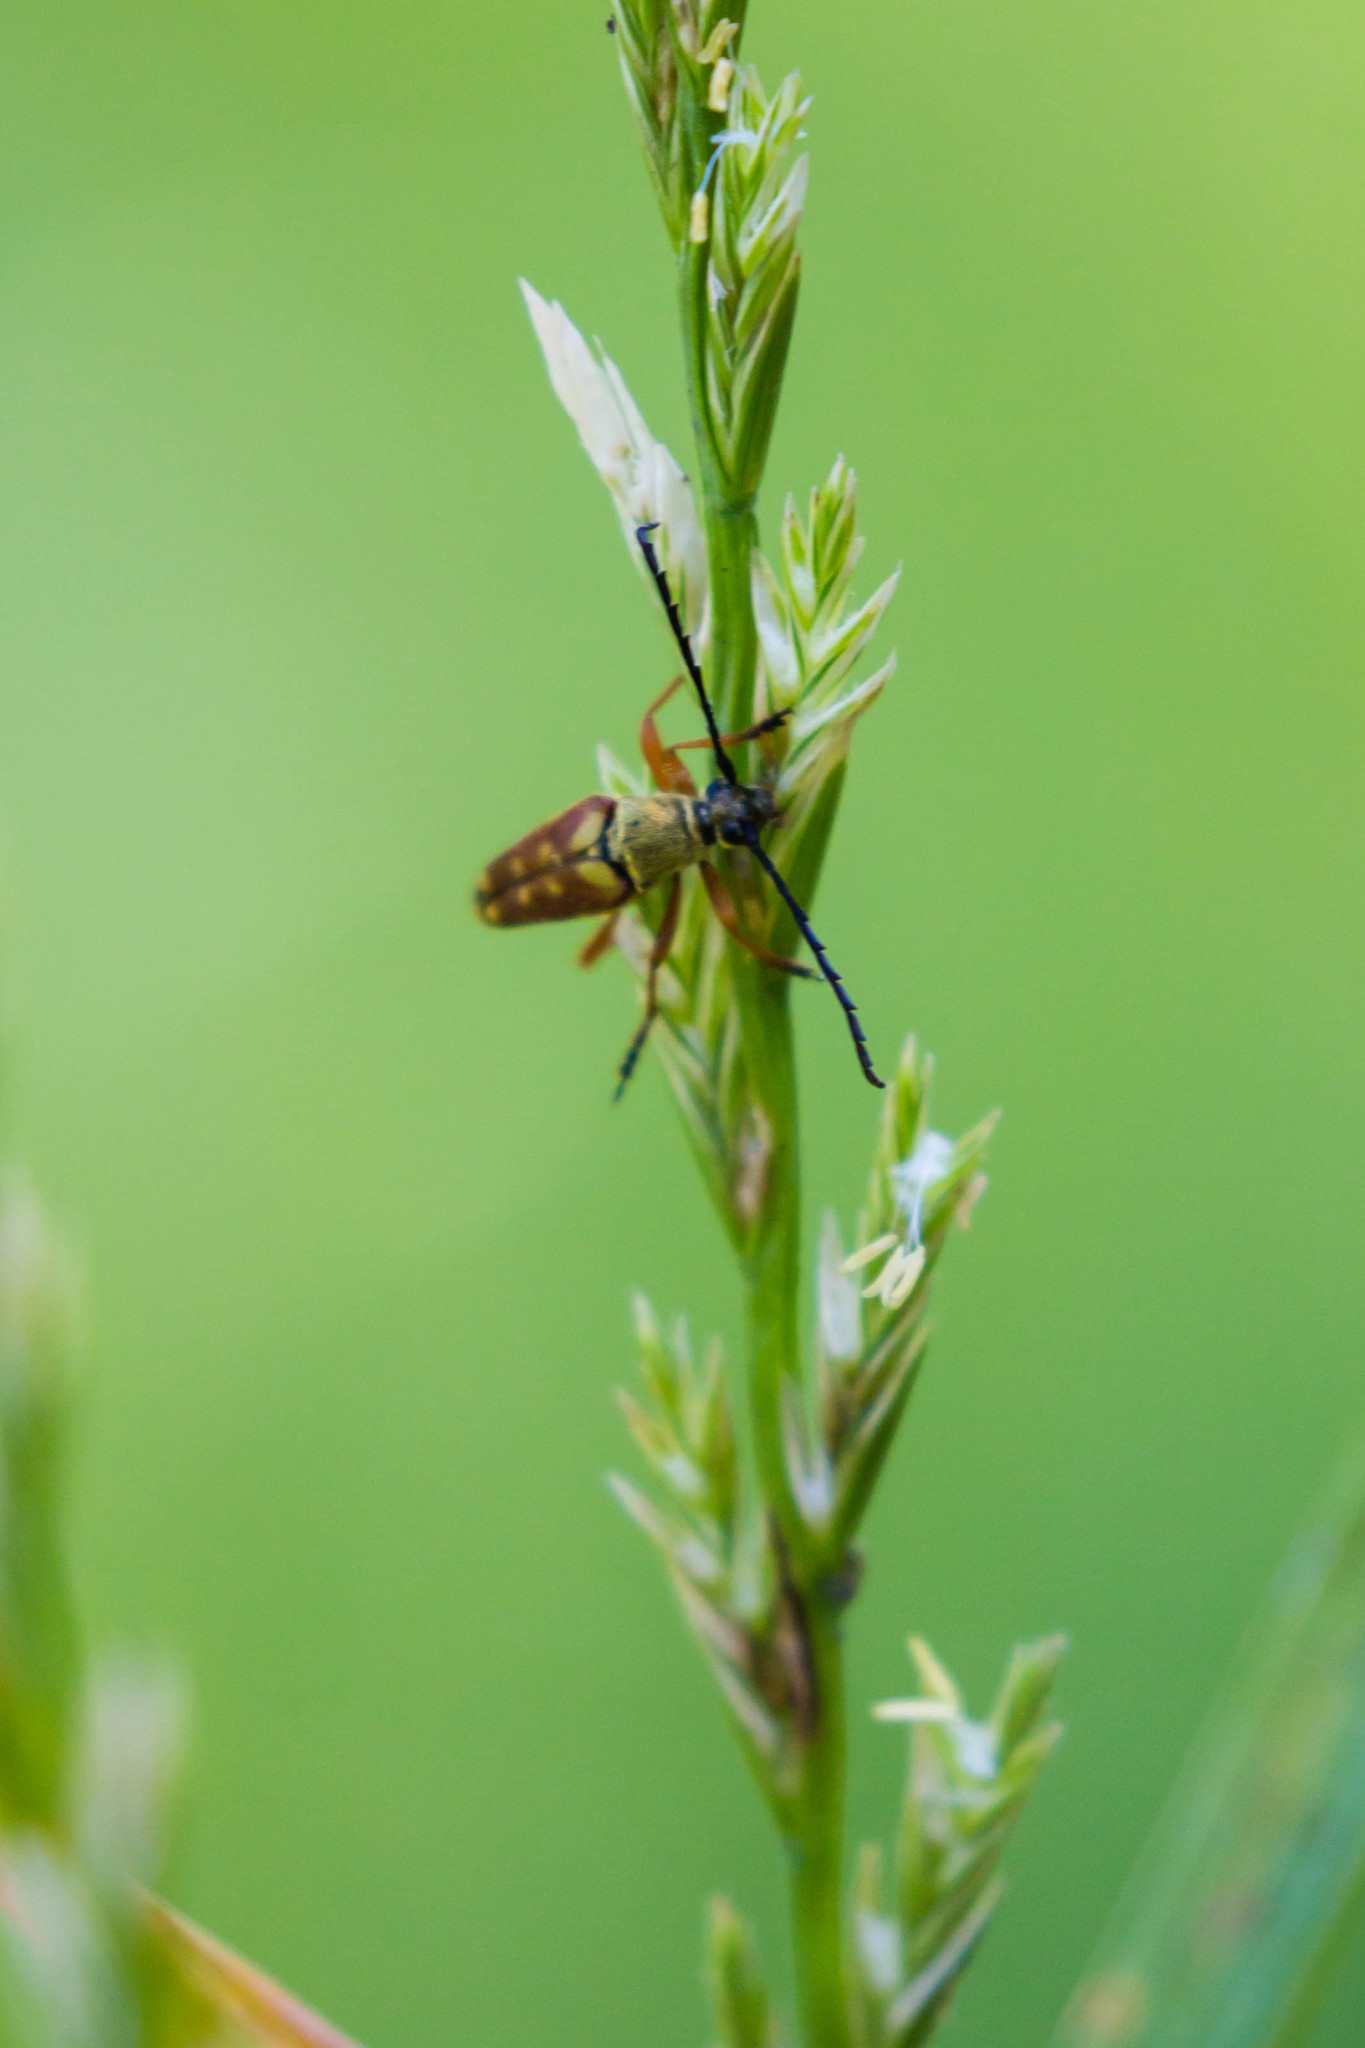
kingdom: Animalia
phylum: Arthropoda
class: Insecta
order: Coleoptera
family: Cerambycidae
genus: Typocerus
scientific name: Typocerus velutinus
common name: Banded longhorn beetle
